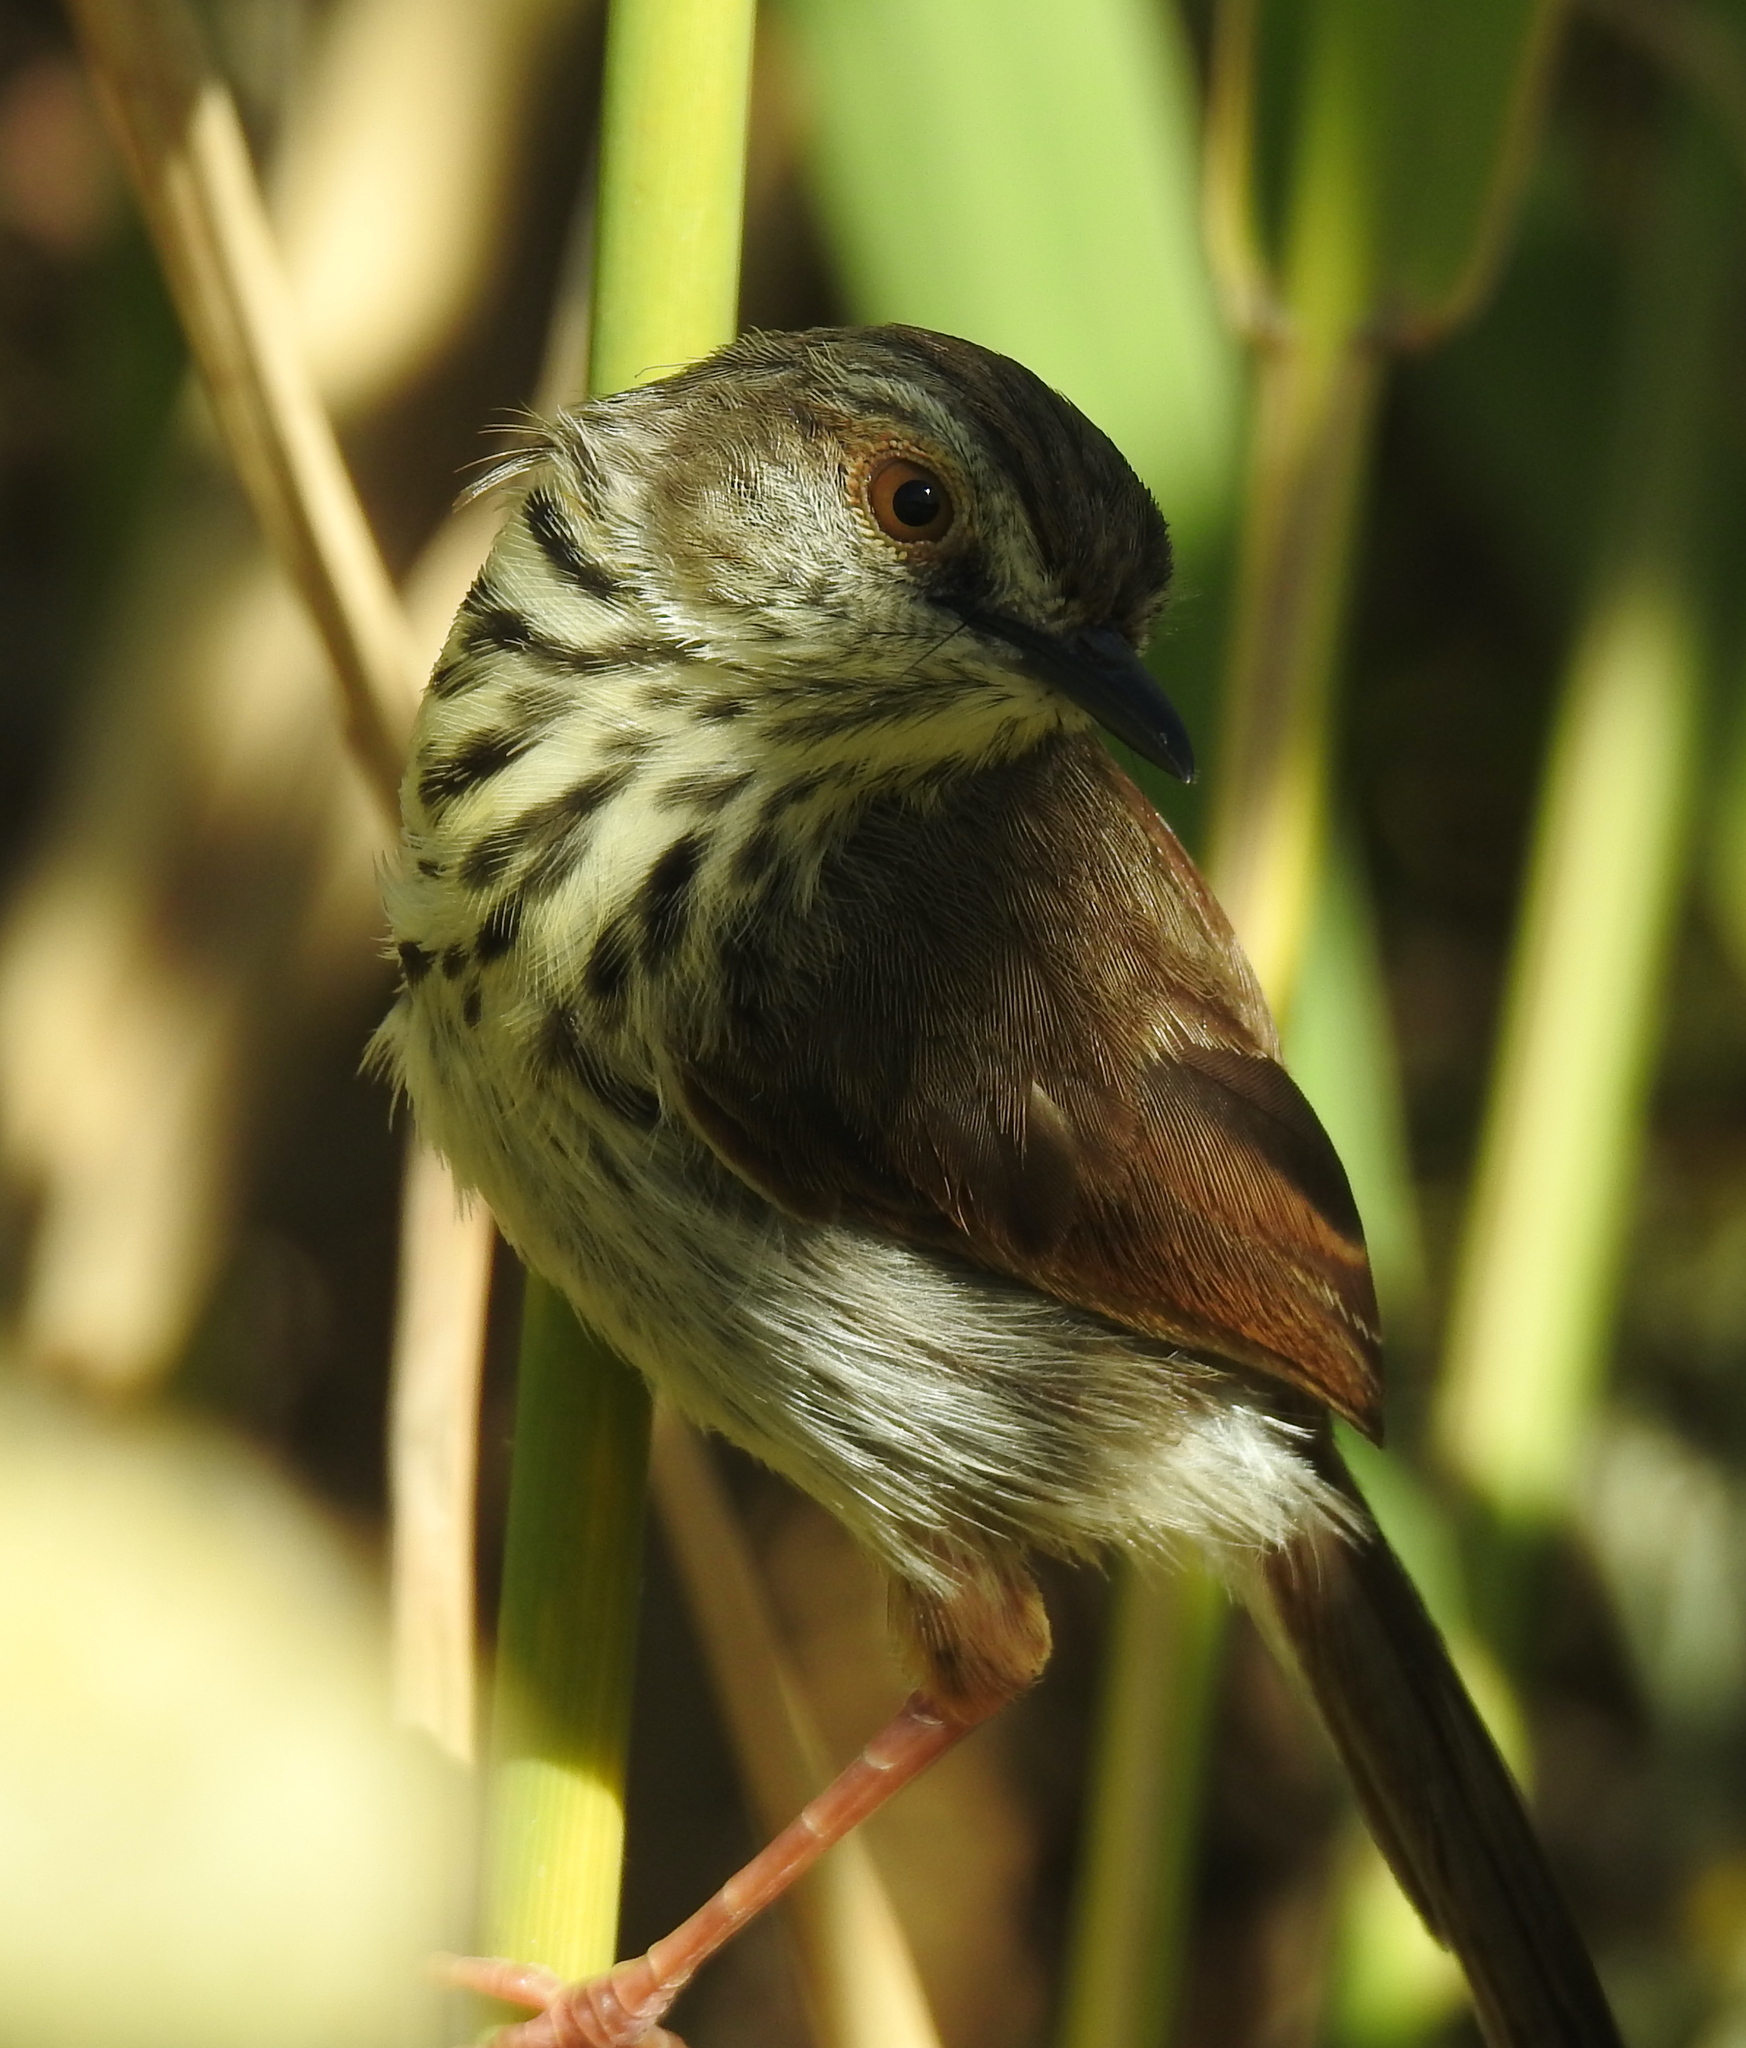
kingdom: Animalia
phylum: Chordata
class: Aves
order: Passeriformes
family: Cisticolidae
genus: Prinia
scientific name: Prinia maculosa
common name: Karoo prinia
